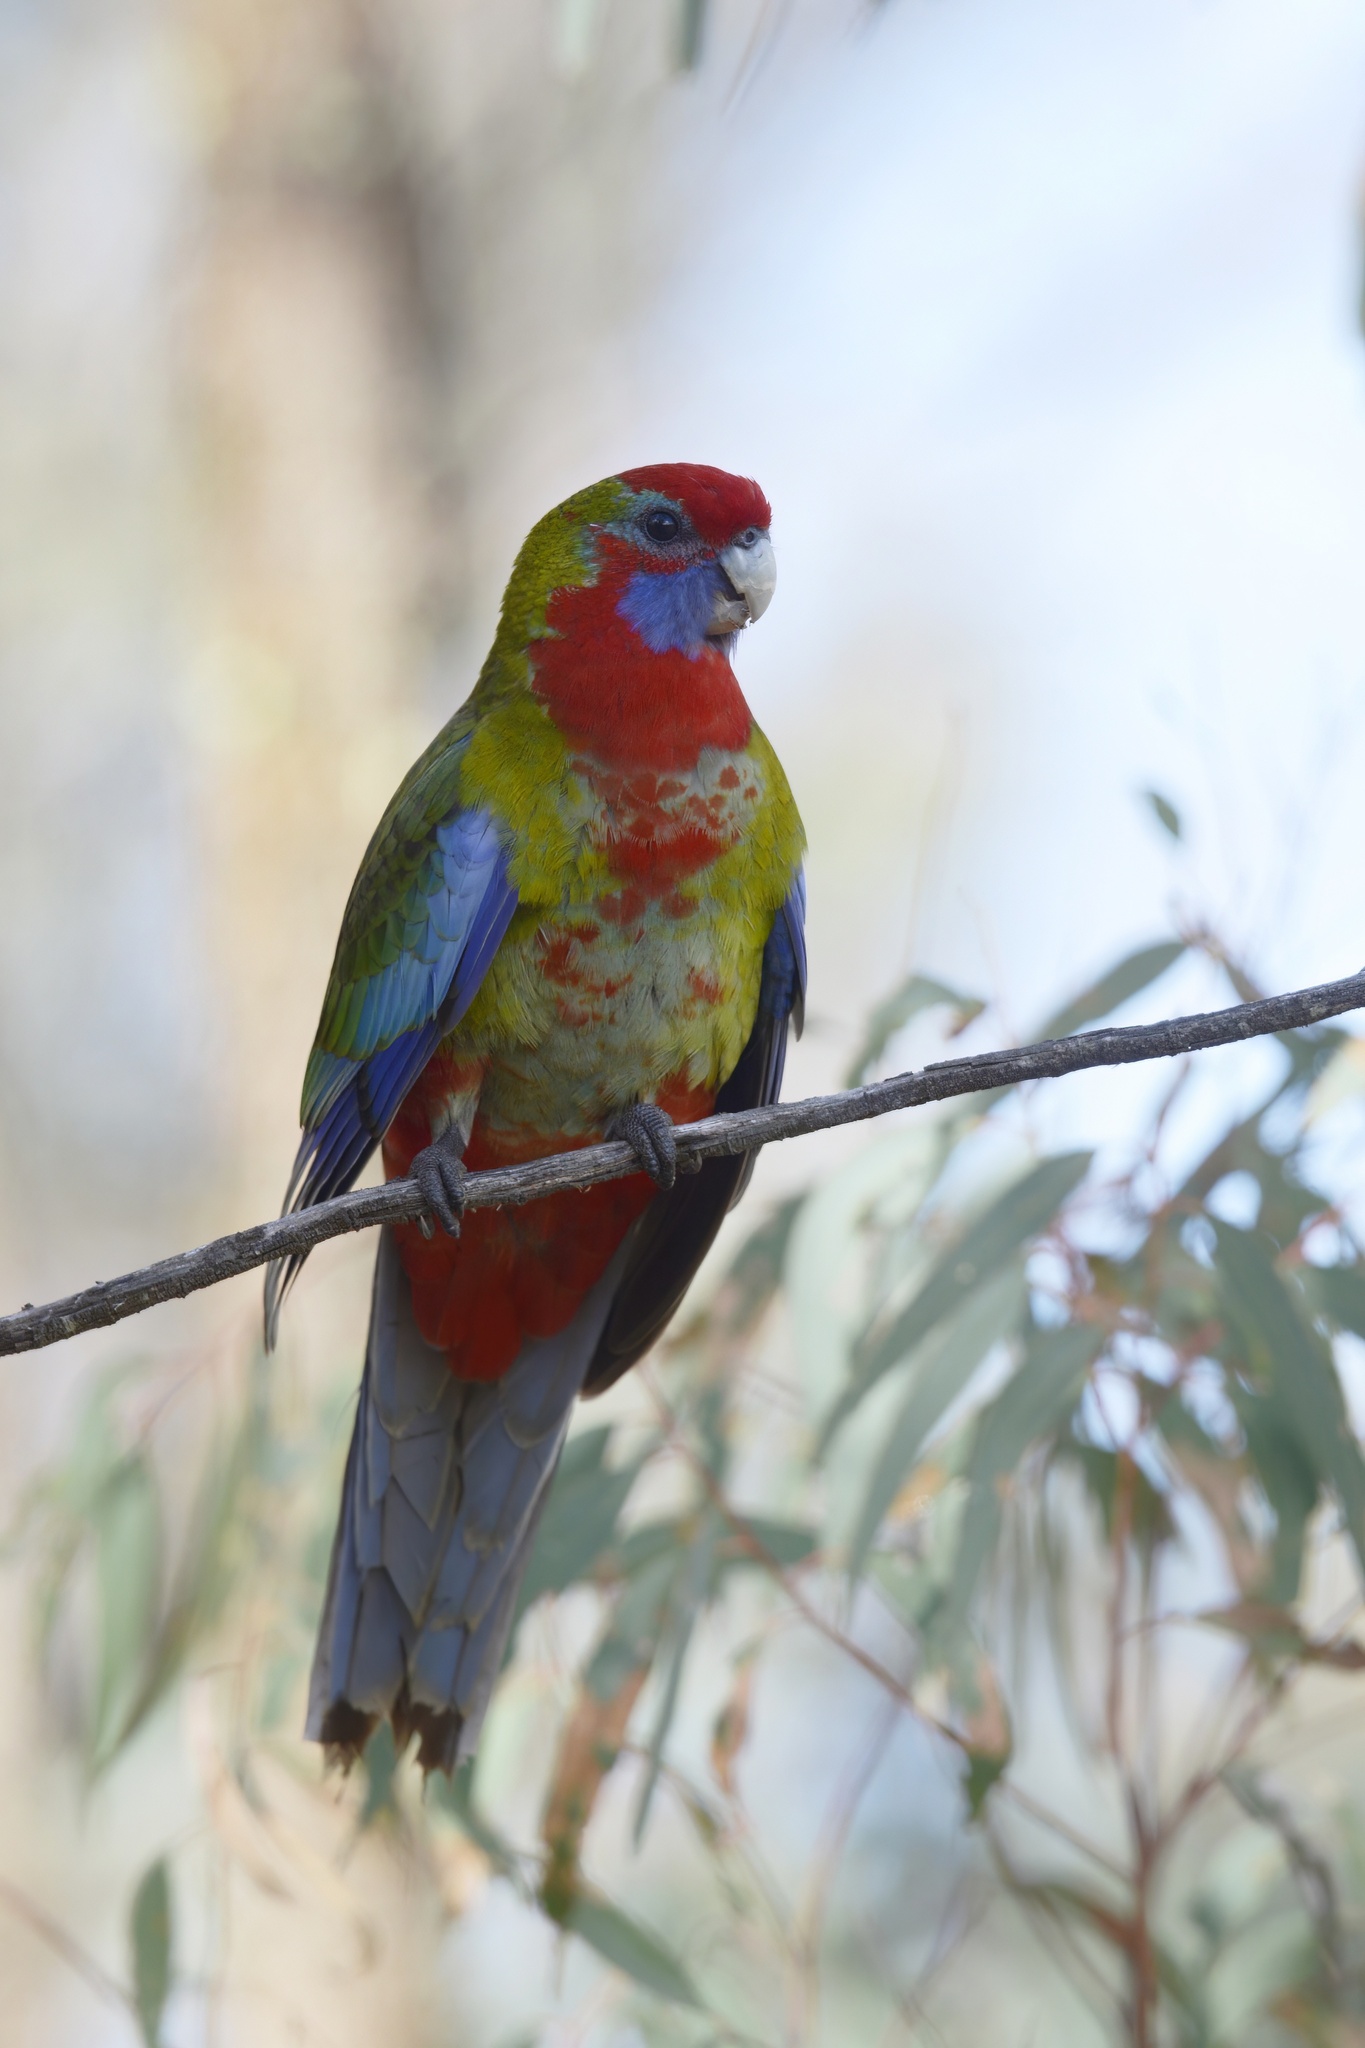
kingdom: Animalia
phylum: Chordata
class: Aves
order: Psittaciformes
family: Psittacidae
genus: Platycercus
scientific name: Platycercus elegans
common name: Crimson rosella
